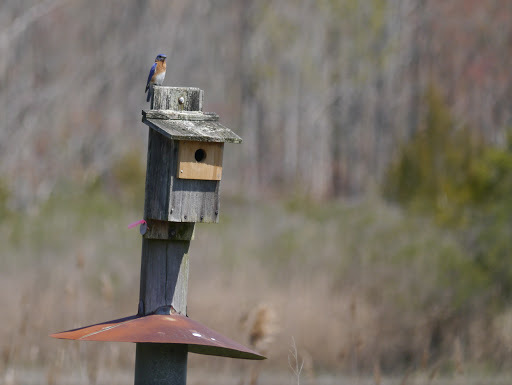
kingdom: Animalia
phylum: Chordata
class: Aves
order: Passeriformes
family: Turdidae
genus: Sialia
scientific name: Sialia sialis
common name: Eastern bluebird
